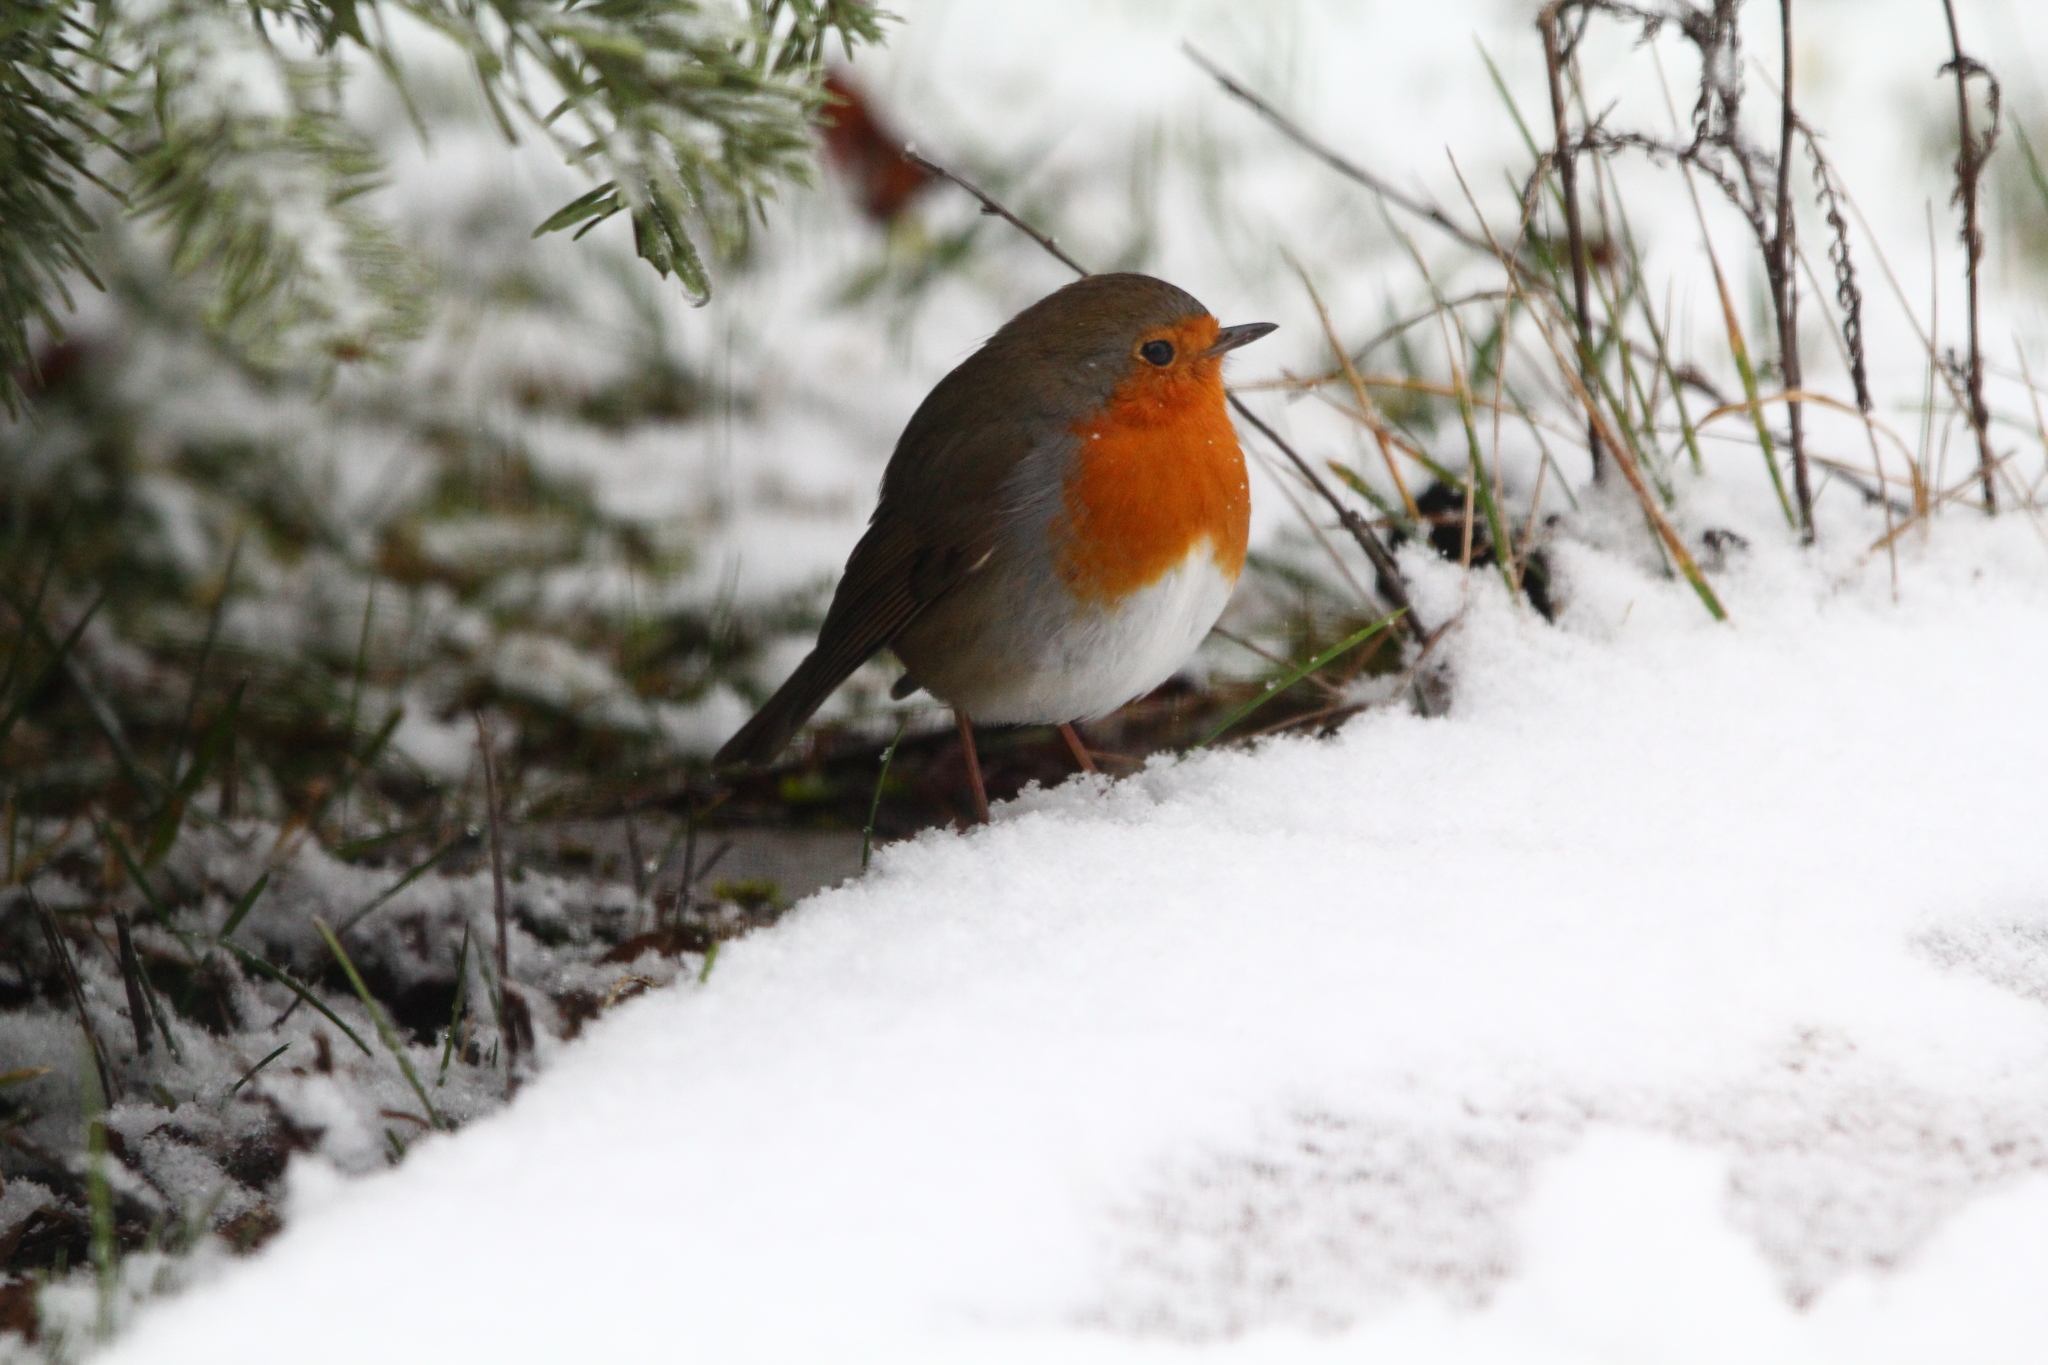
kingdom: Animalia
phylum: Chordata
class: Aves
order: Passeriformes
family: Muscicapidae
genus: Erithacus
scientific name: Erithacus rubecula
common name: European robin
